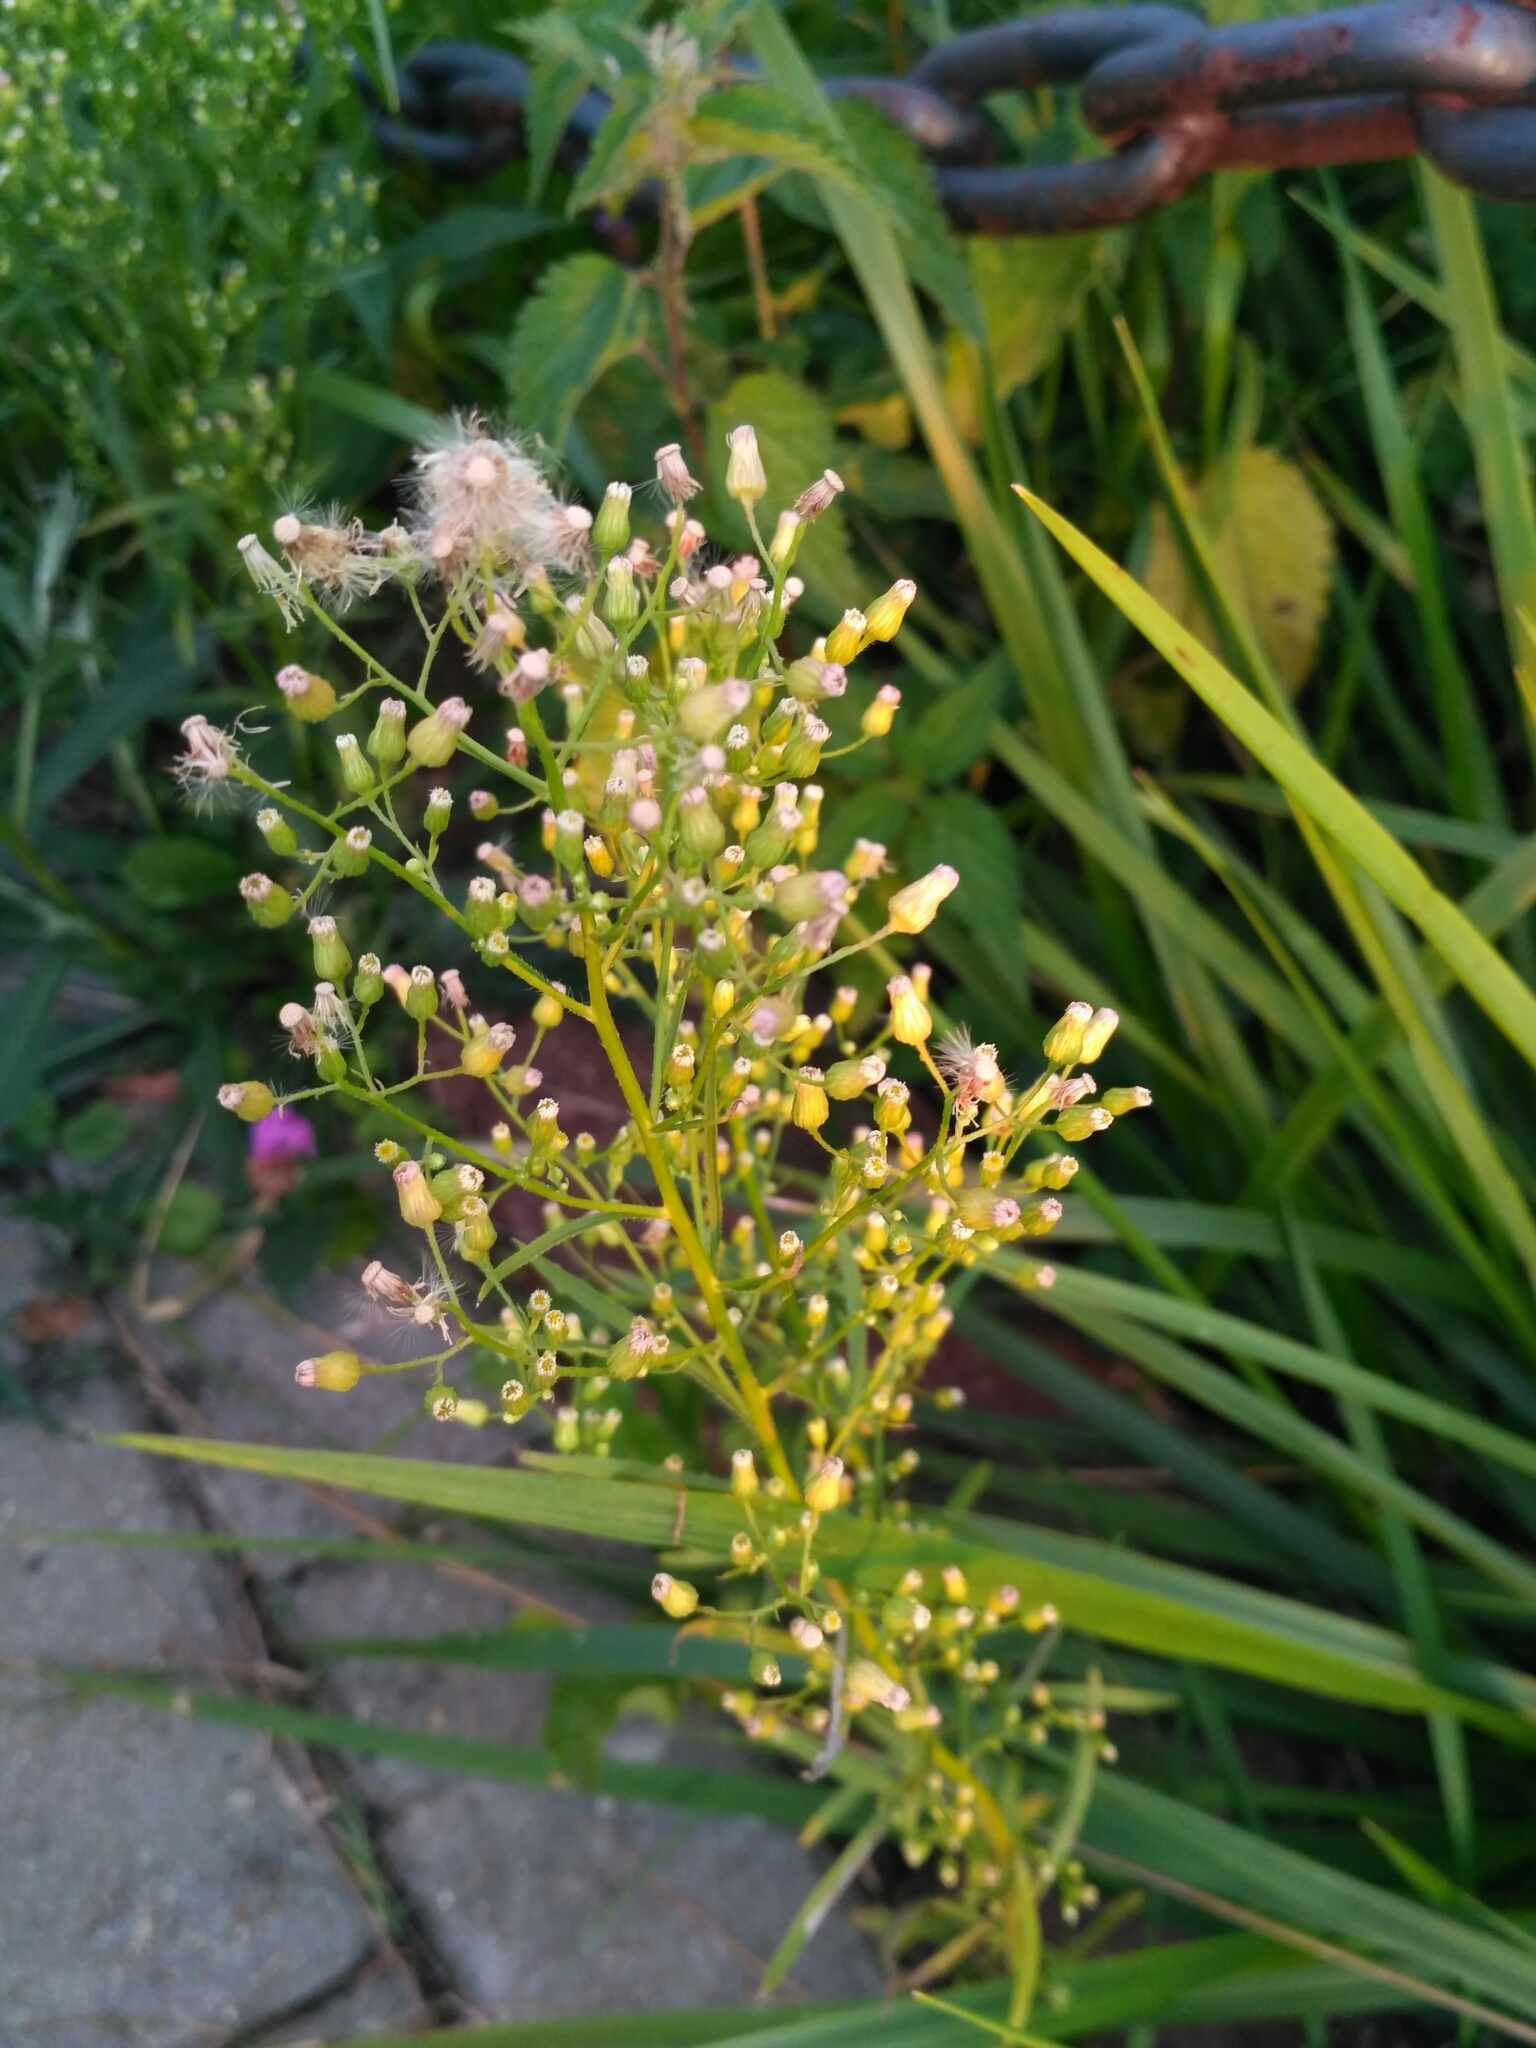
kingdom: Plantae
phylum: Tracheophyta
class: Magnoliopsida
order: Asterales
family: Asteraceae
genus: Erigeron
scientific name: Erigeron canadensis
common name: Canadian fleabane
